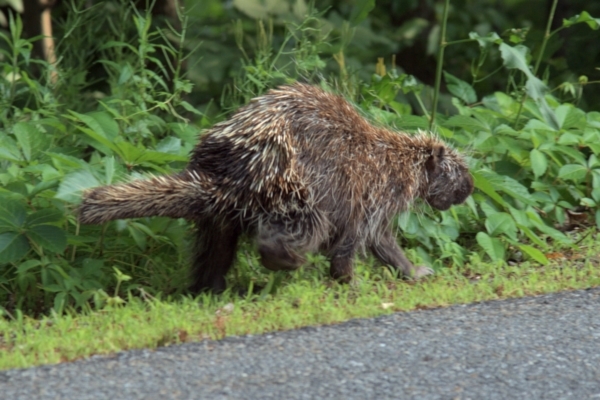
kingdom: Animalia
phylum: Chordata
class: Mammalia
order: Rodentia
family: Erethizontidae
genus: Erethizon
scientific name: Erethizon dorsatus
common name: North american porcupine
